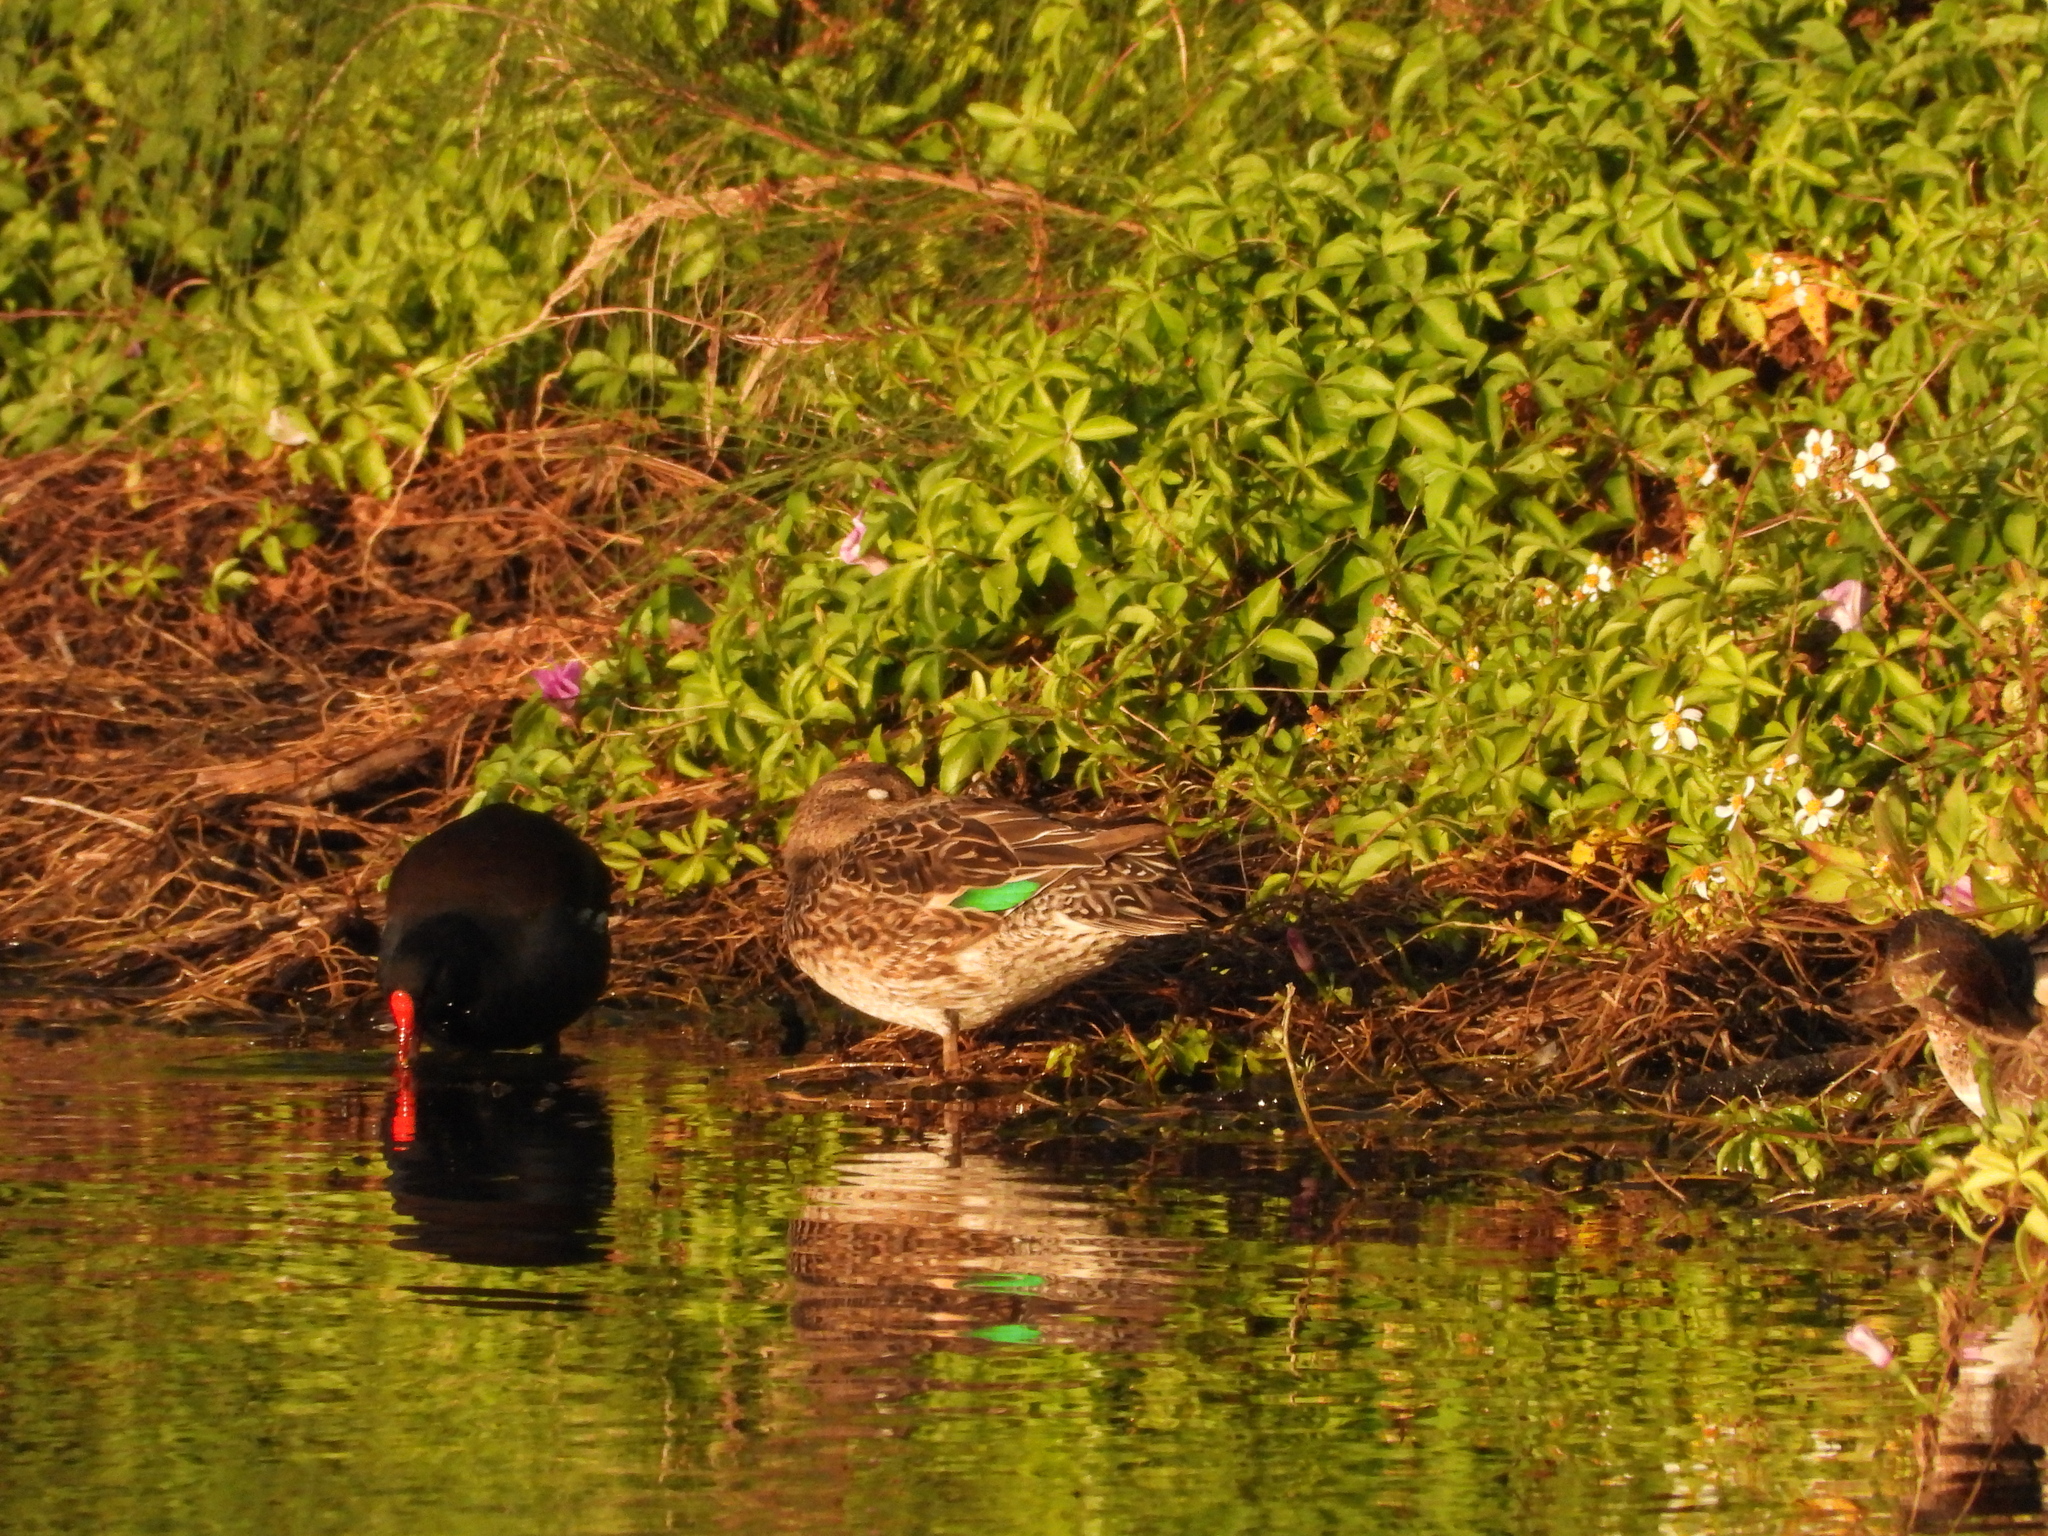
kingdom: Animalia
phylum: Chordata
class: Aves
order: Anseriformes
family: Anatidae
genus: Anas
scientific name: Anas crecca
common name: Eurasian teal
